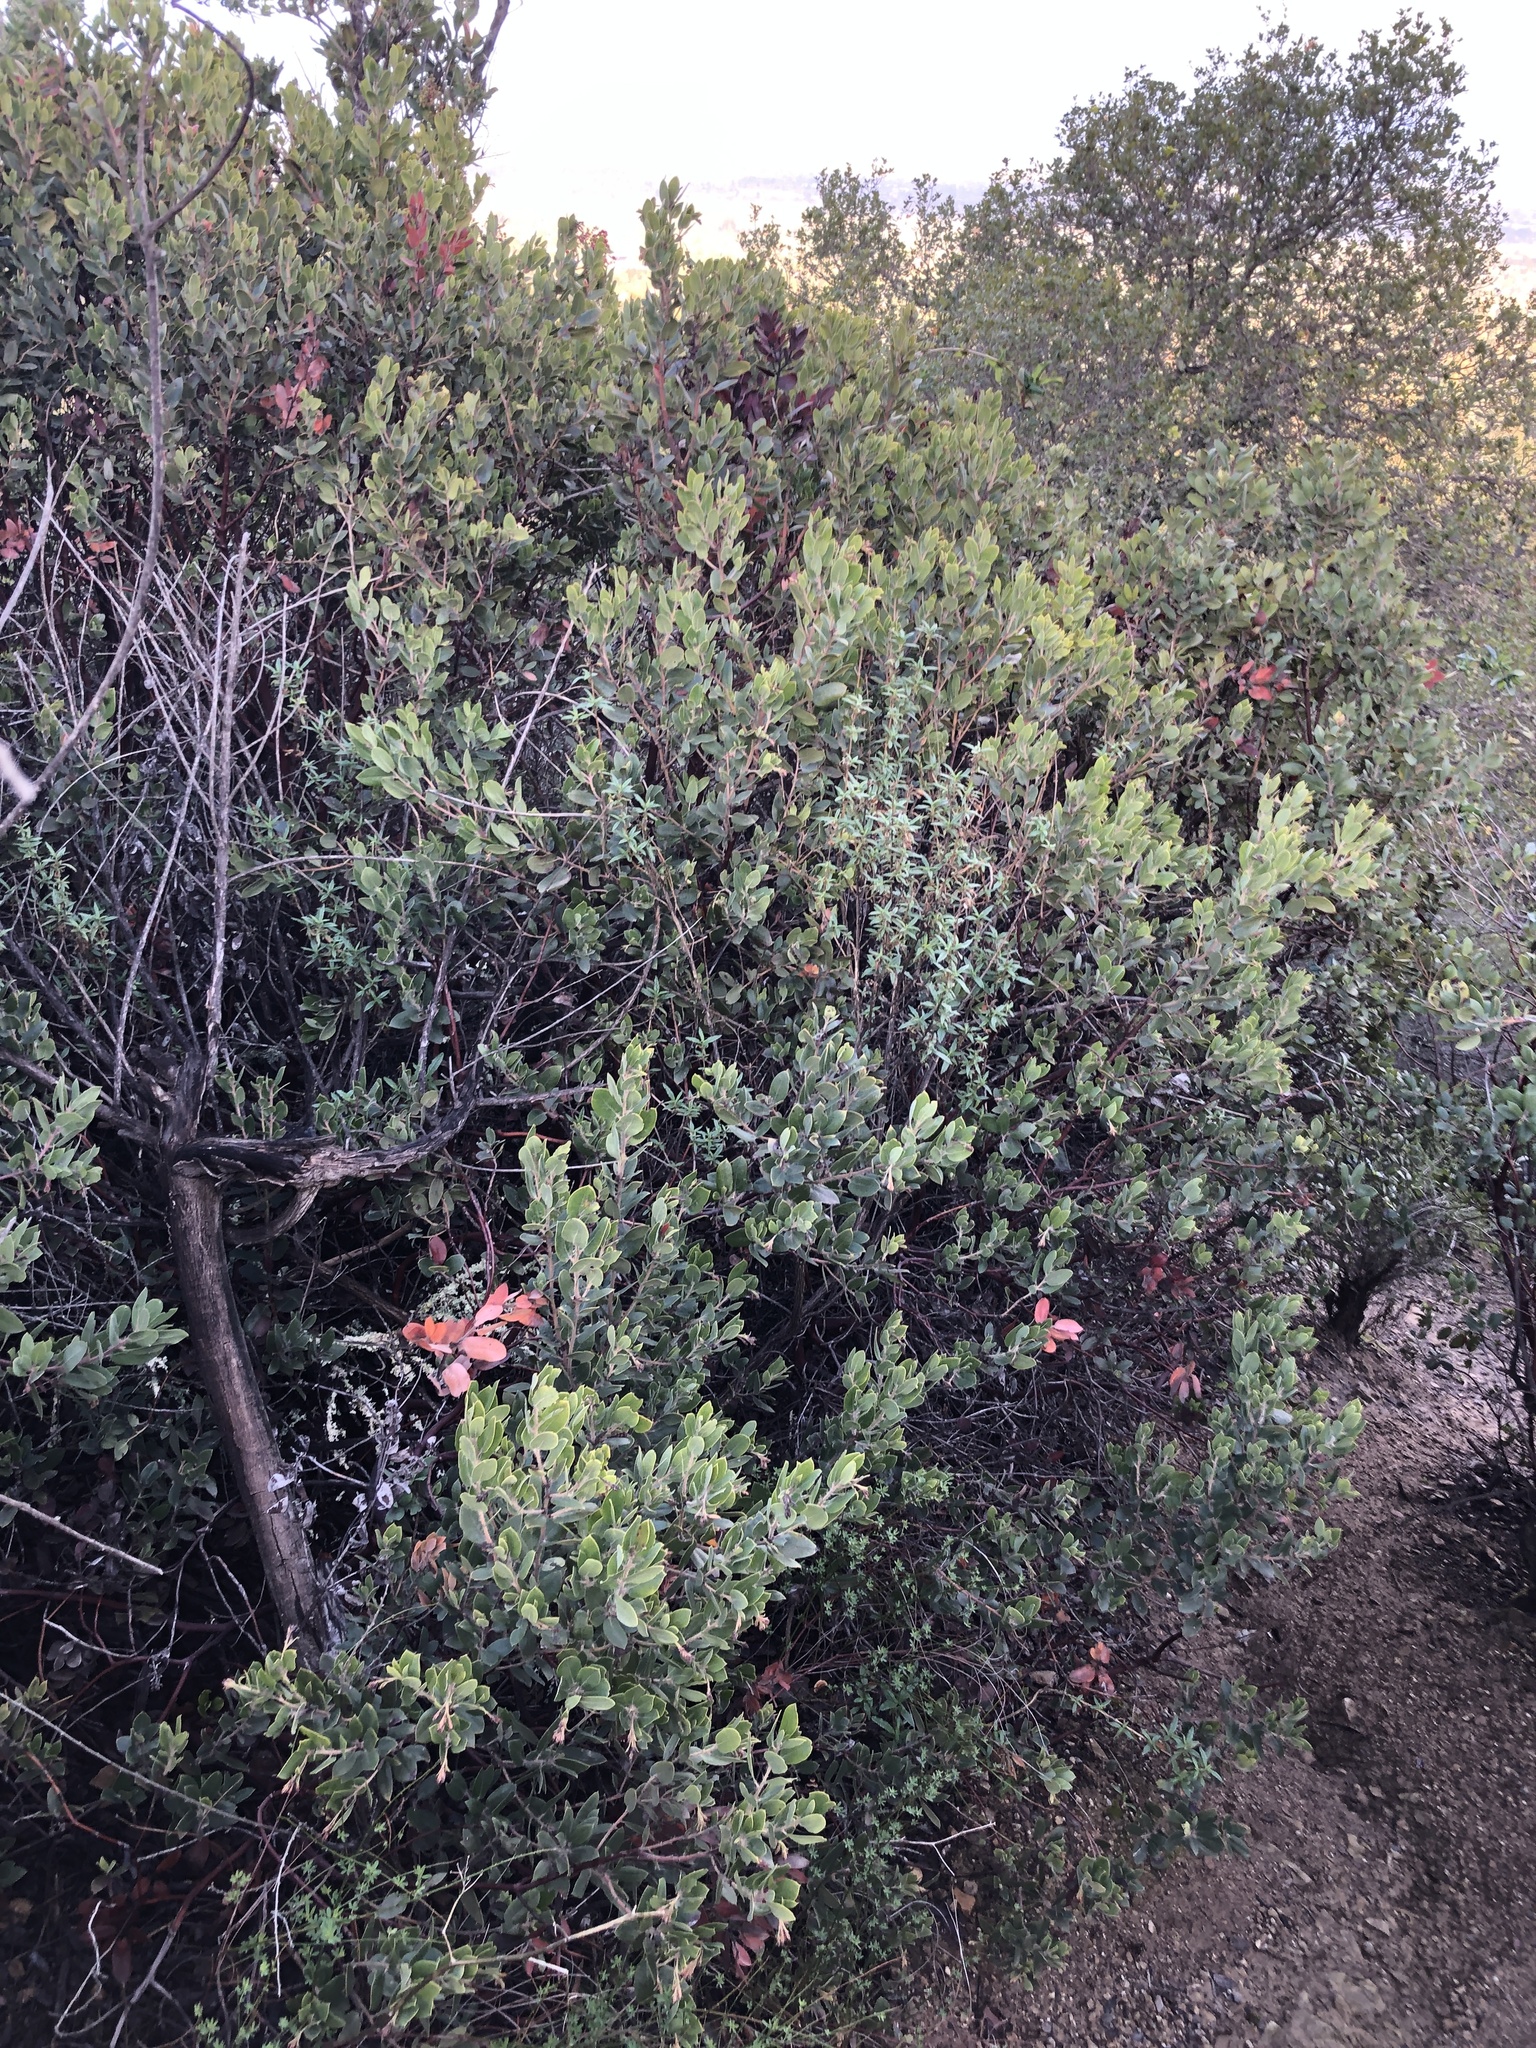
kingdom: Plantae
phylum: Tracheophyta
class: Magnoliopsida
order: Ericales
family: Ericaceae
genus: Arctostaphylos
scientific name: Arctostaphylos crustacea
